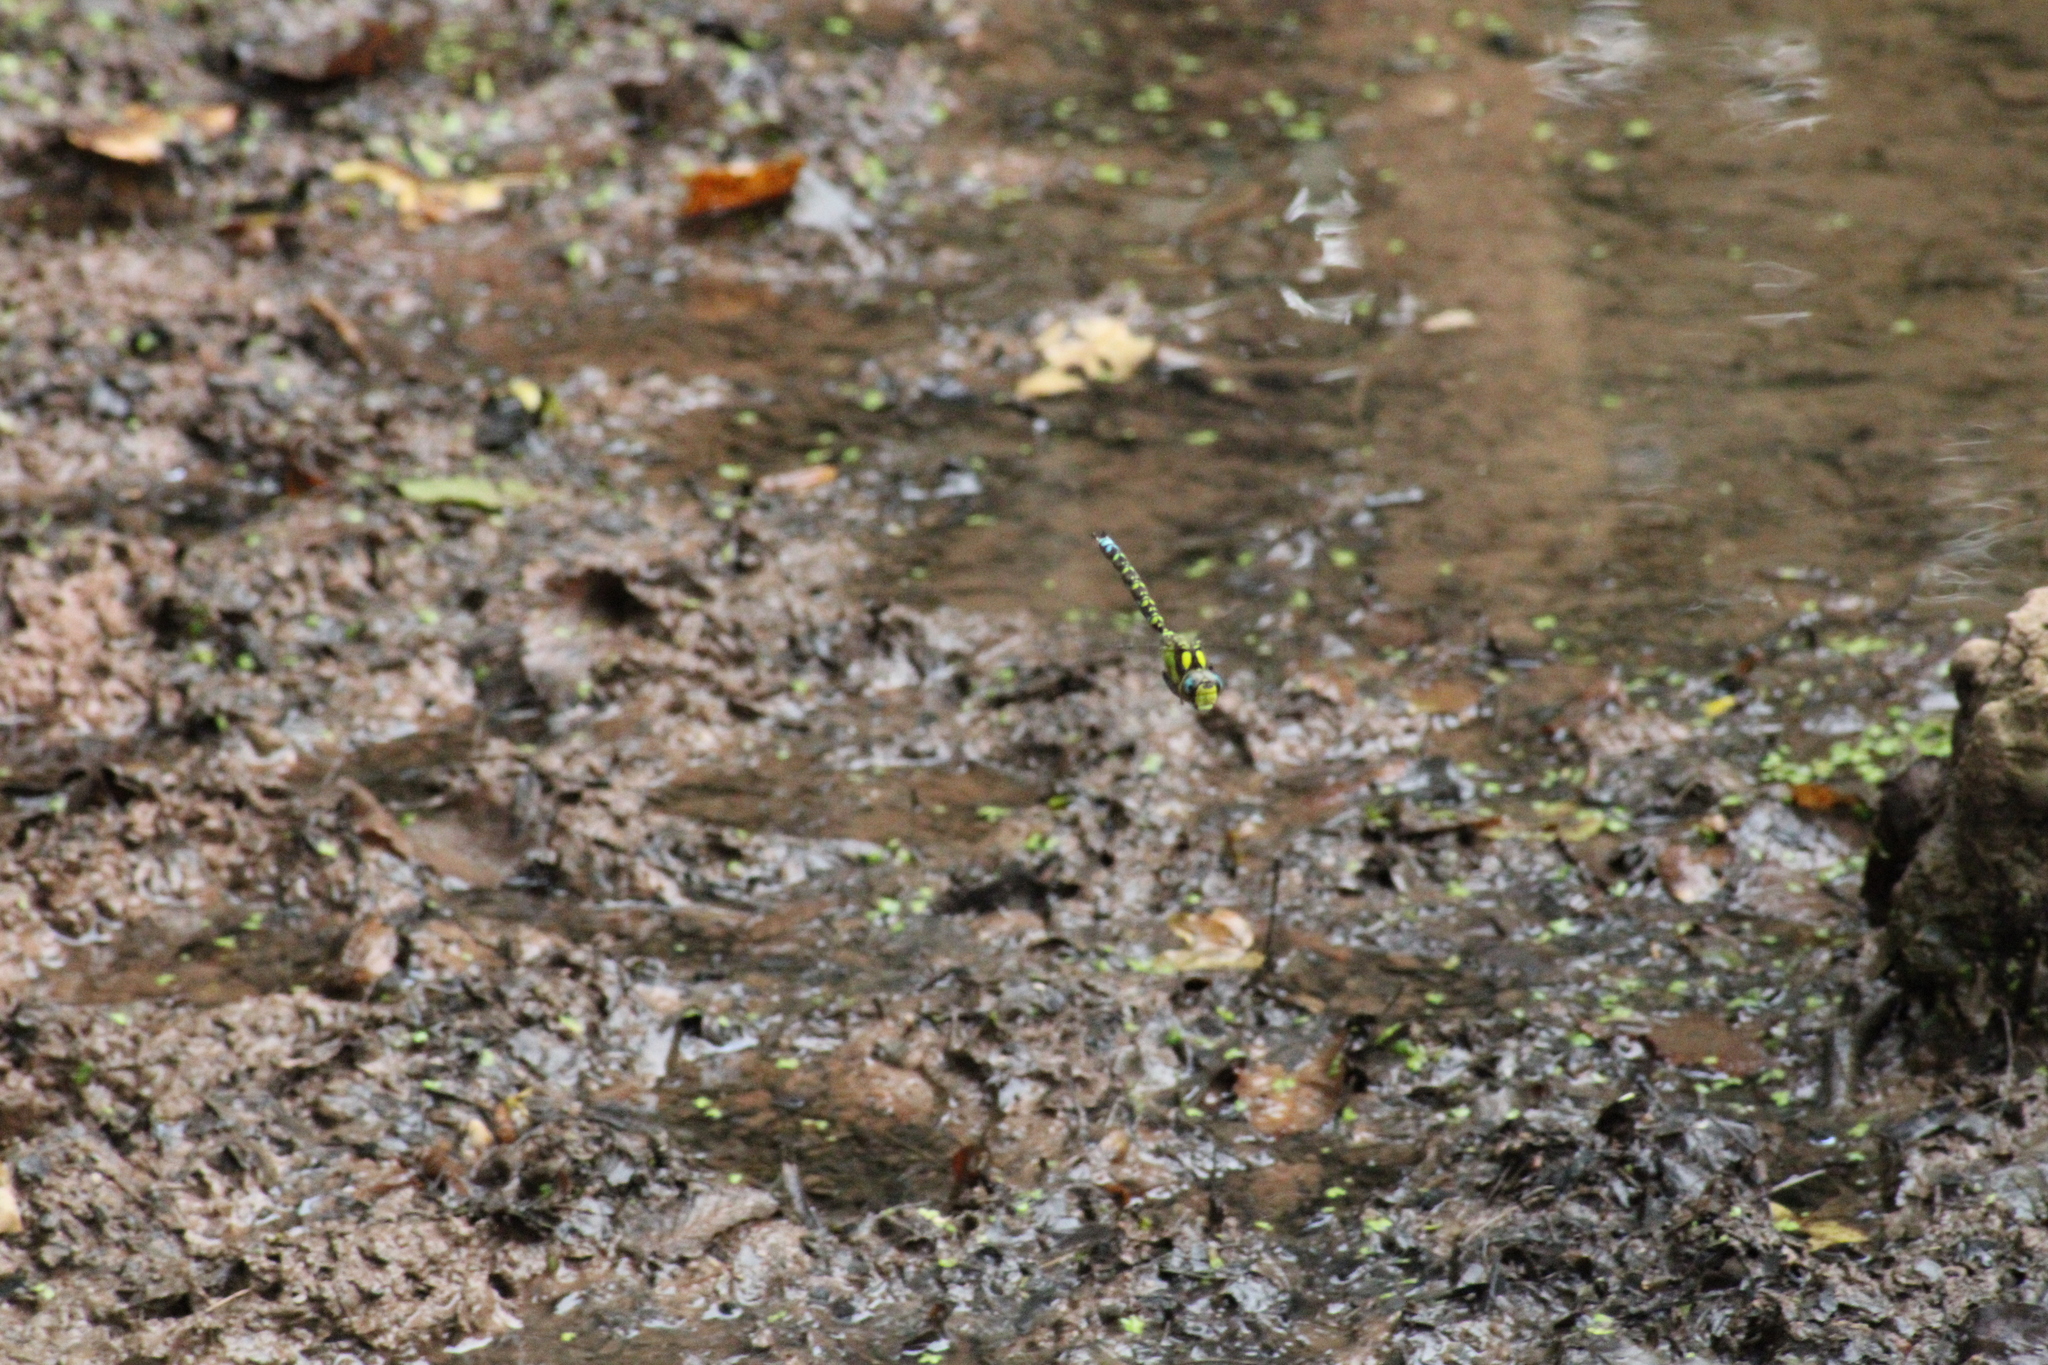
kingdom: Animalia
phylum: Arthropoda
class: Insecta
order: Odonata
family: Aeshnidae
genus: Aeshna
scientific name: Aeshna cyanea
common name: Southern hawker
